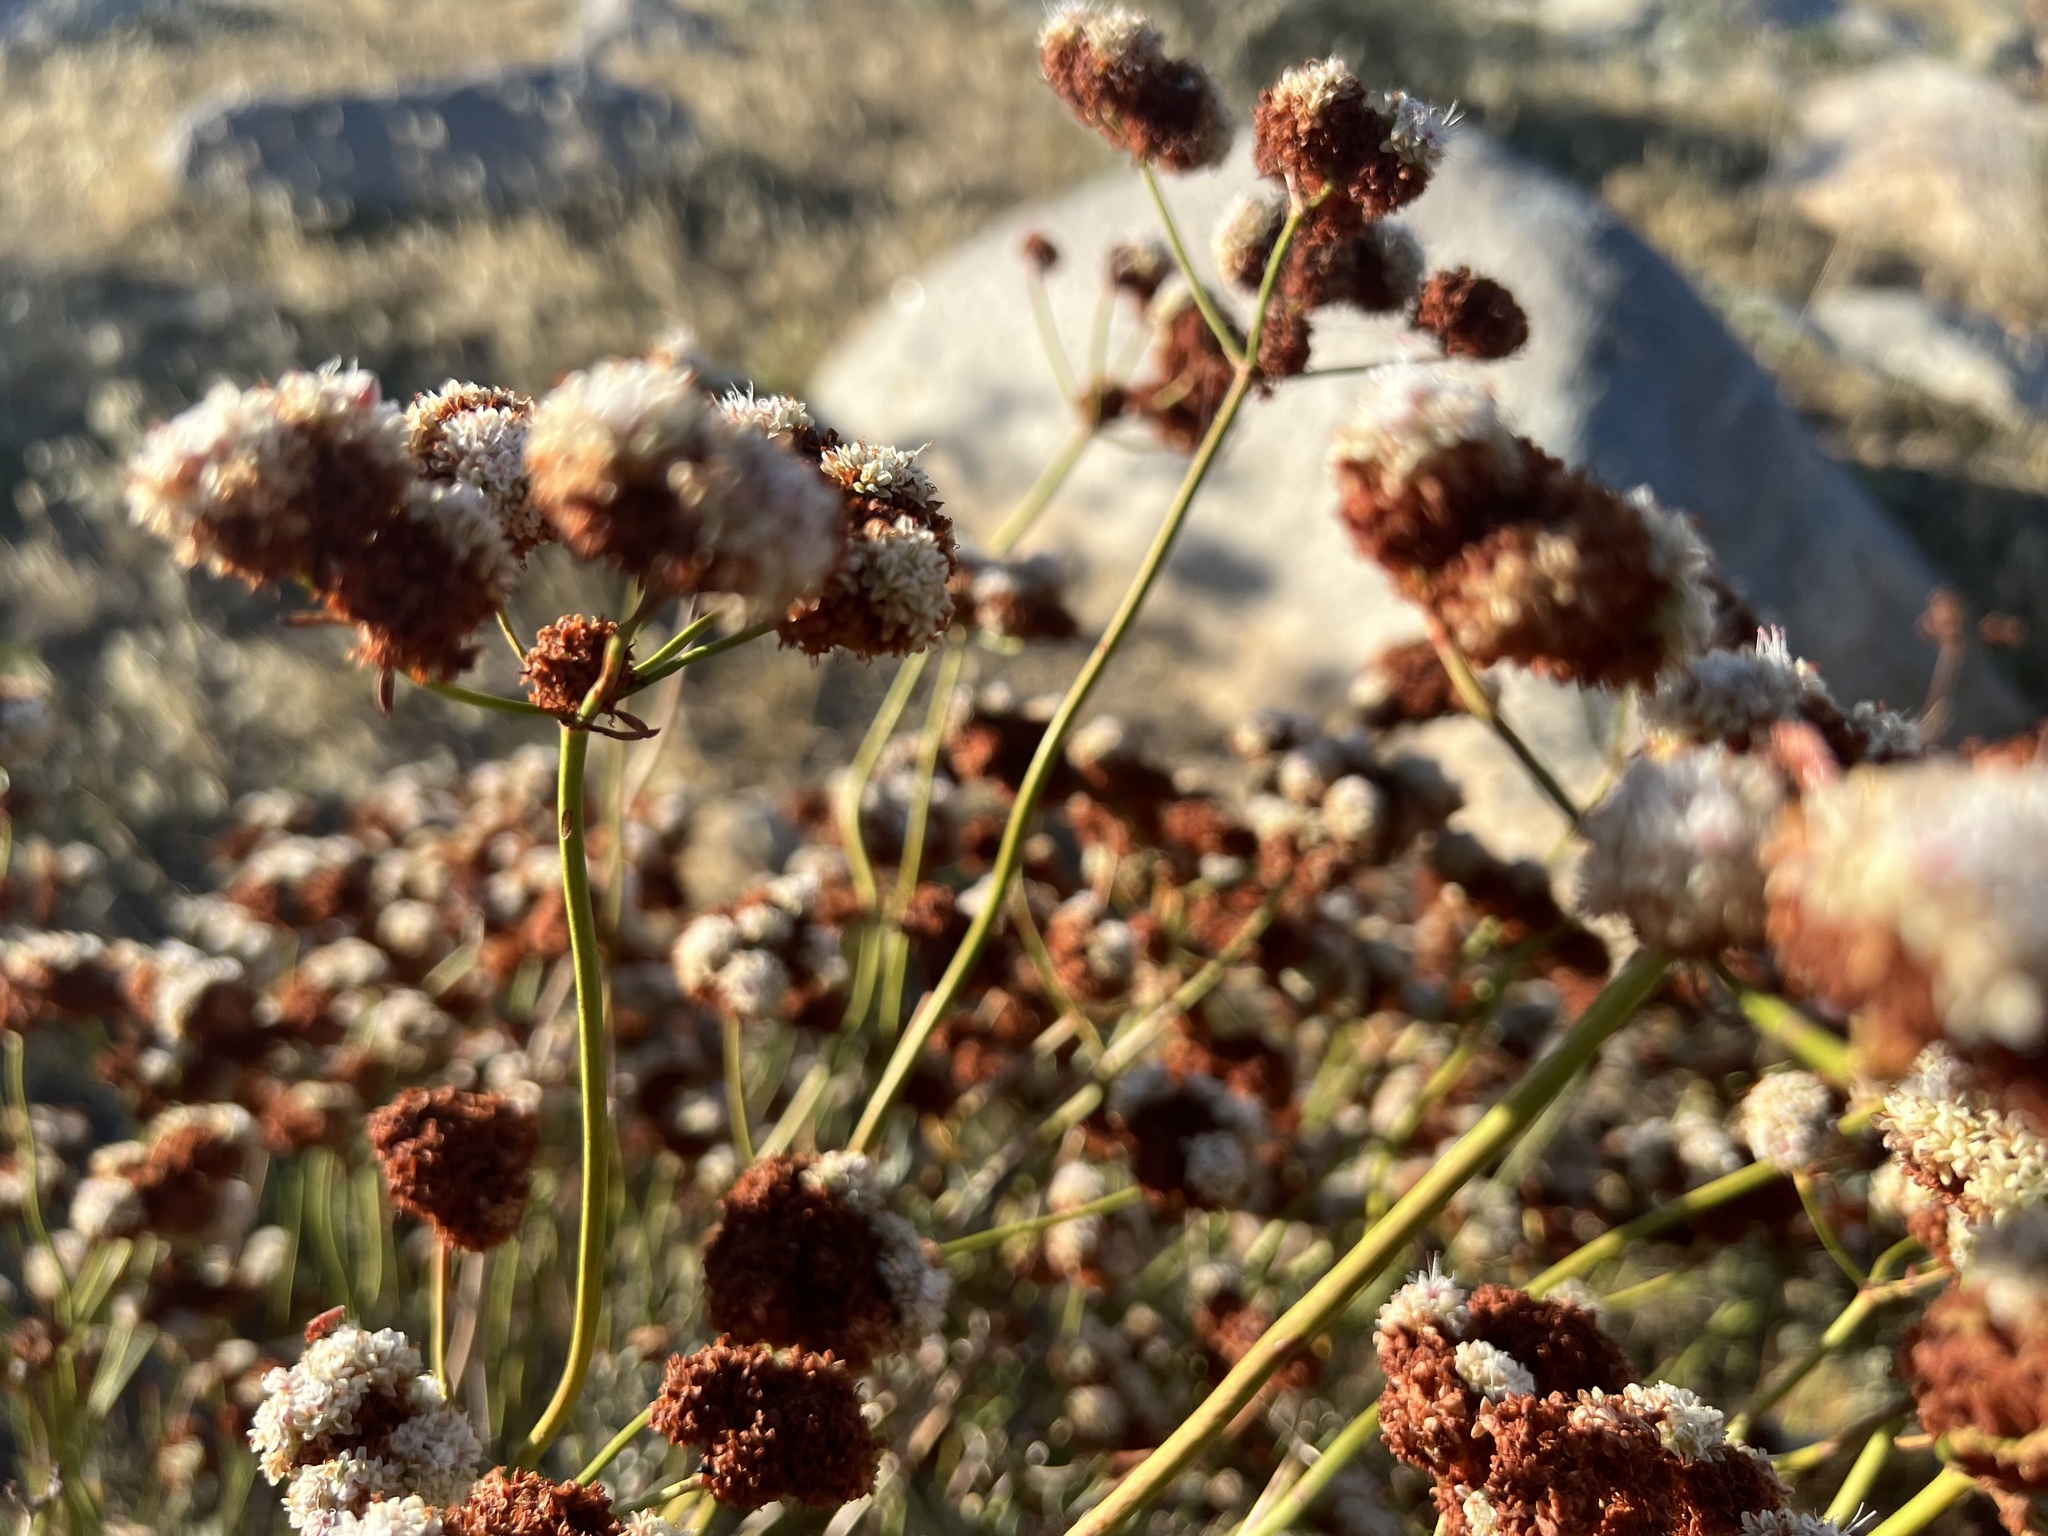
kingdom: Plantae
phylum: Tracheophyta
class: Magnoliopsida
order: Caryophyllales
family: Polygonaceae
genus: Eriogonum
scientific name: Eriogonum fasciculatum
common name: California wild buckwheat
